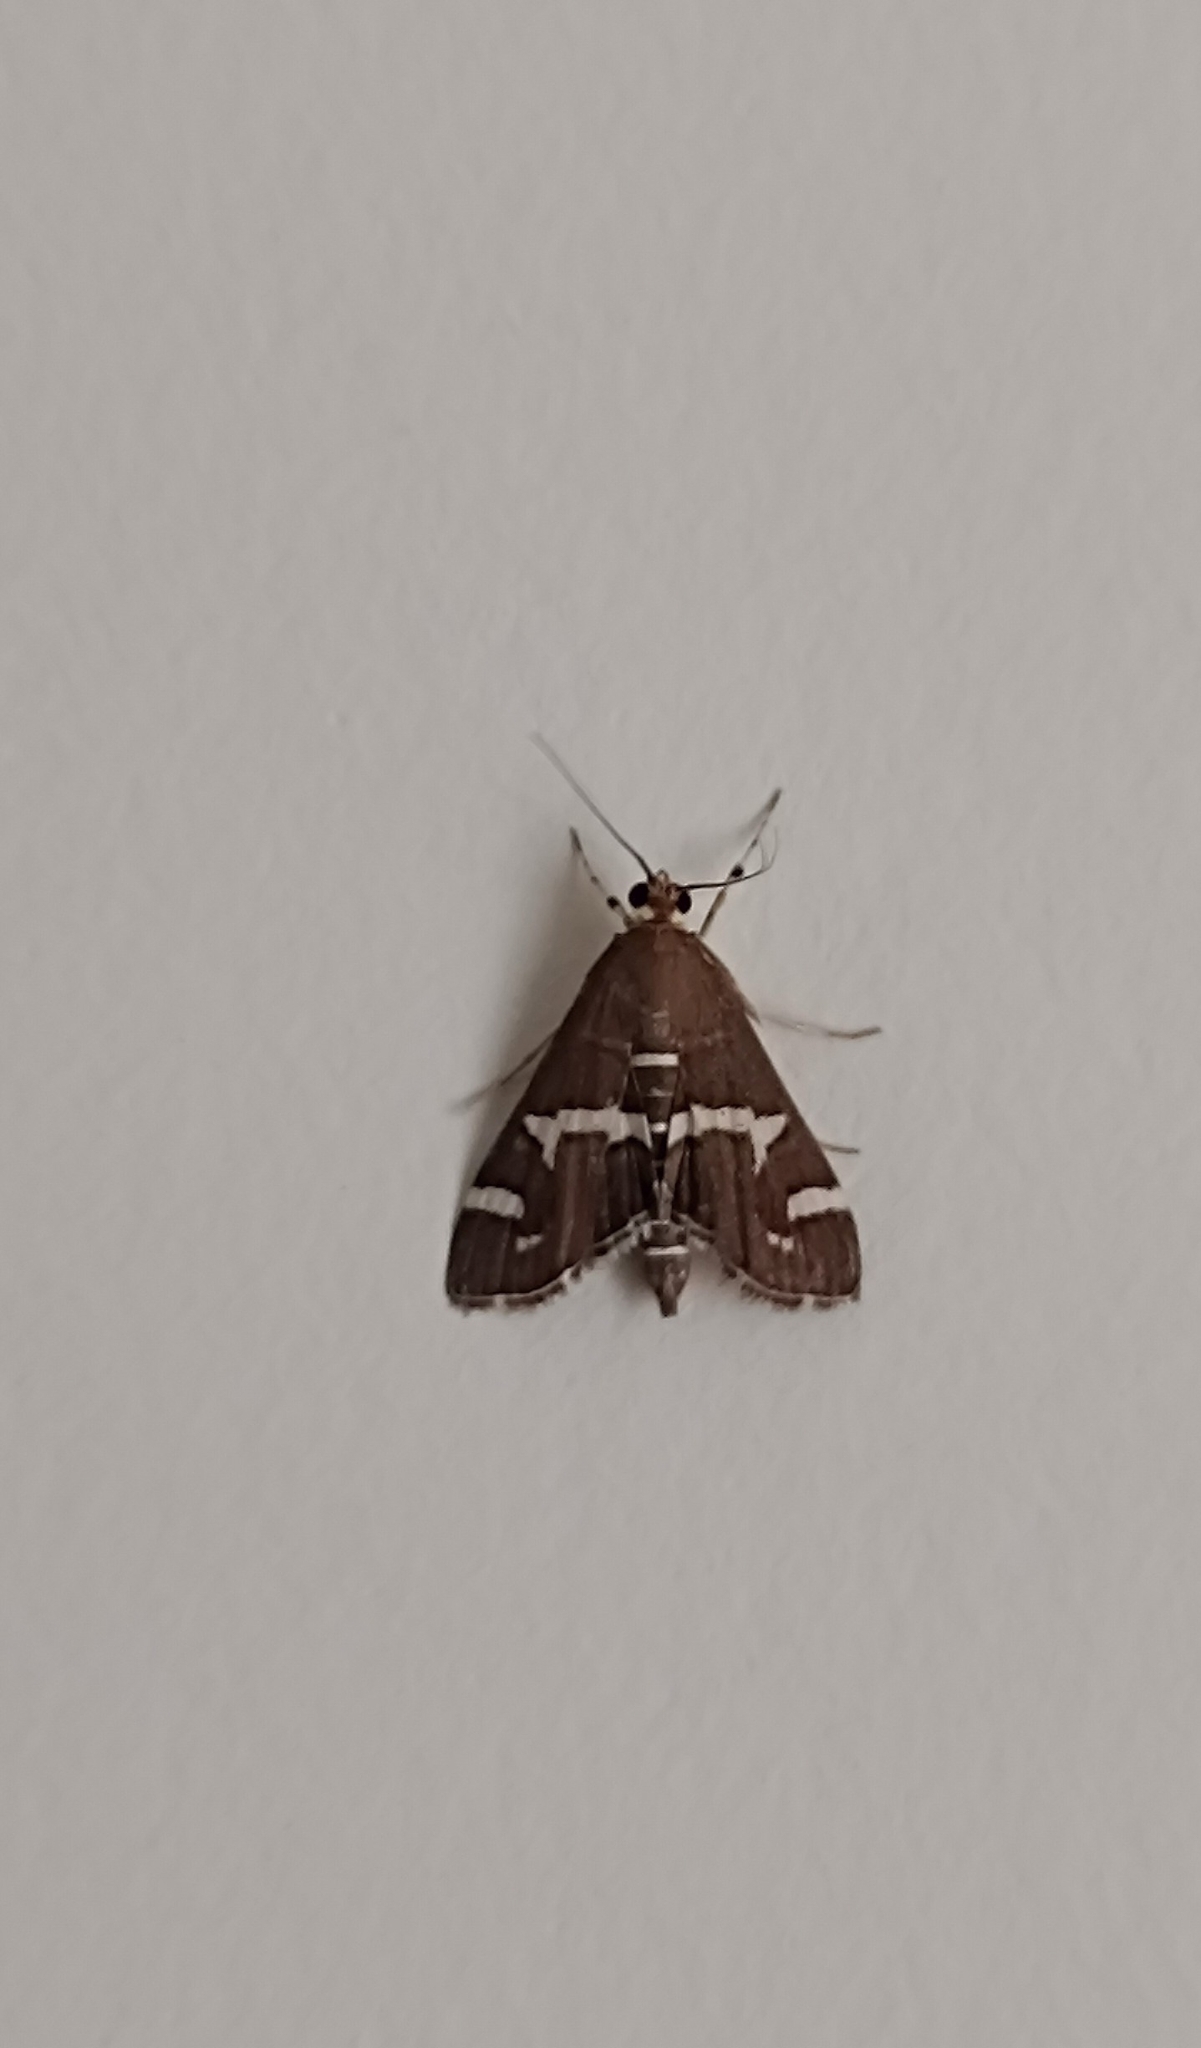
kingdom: Animalia
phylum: Arthropoda
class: Insecta
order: Lepidoptera
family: Crambidae
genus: Spoladea
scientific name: Spoladea recurvalis
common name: Beet webworm moth
